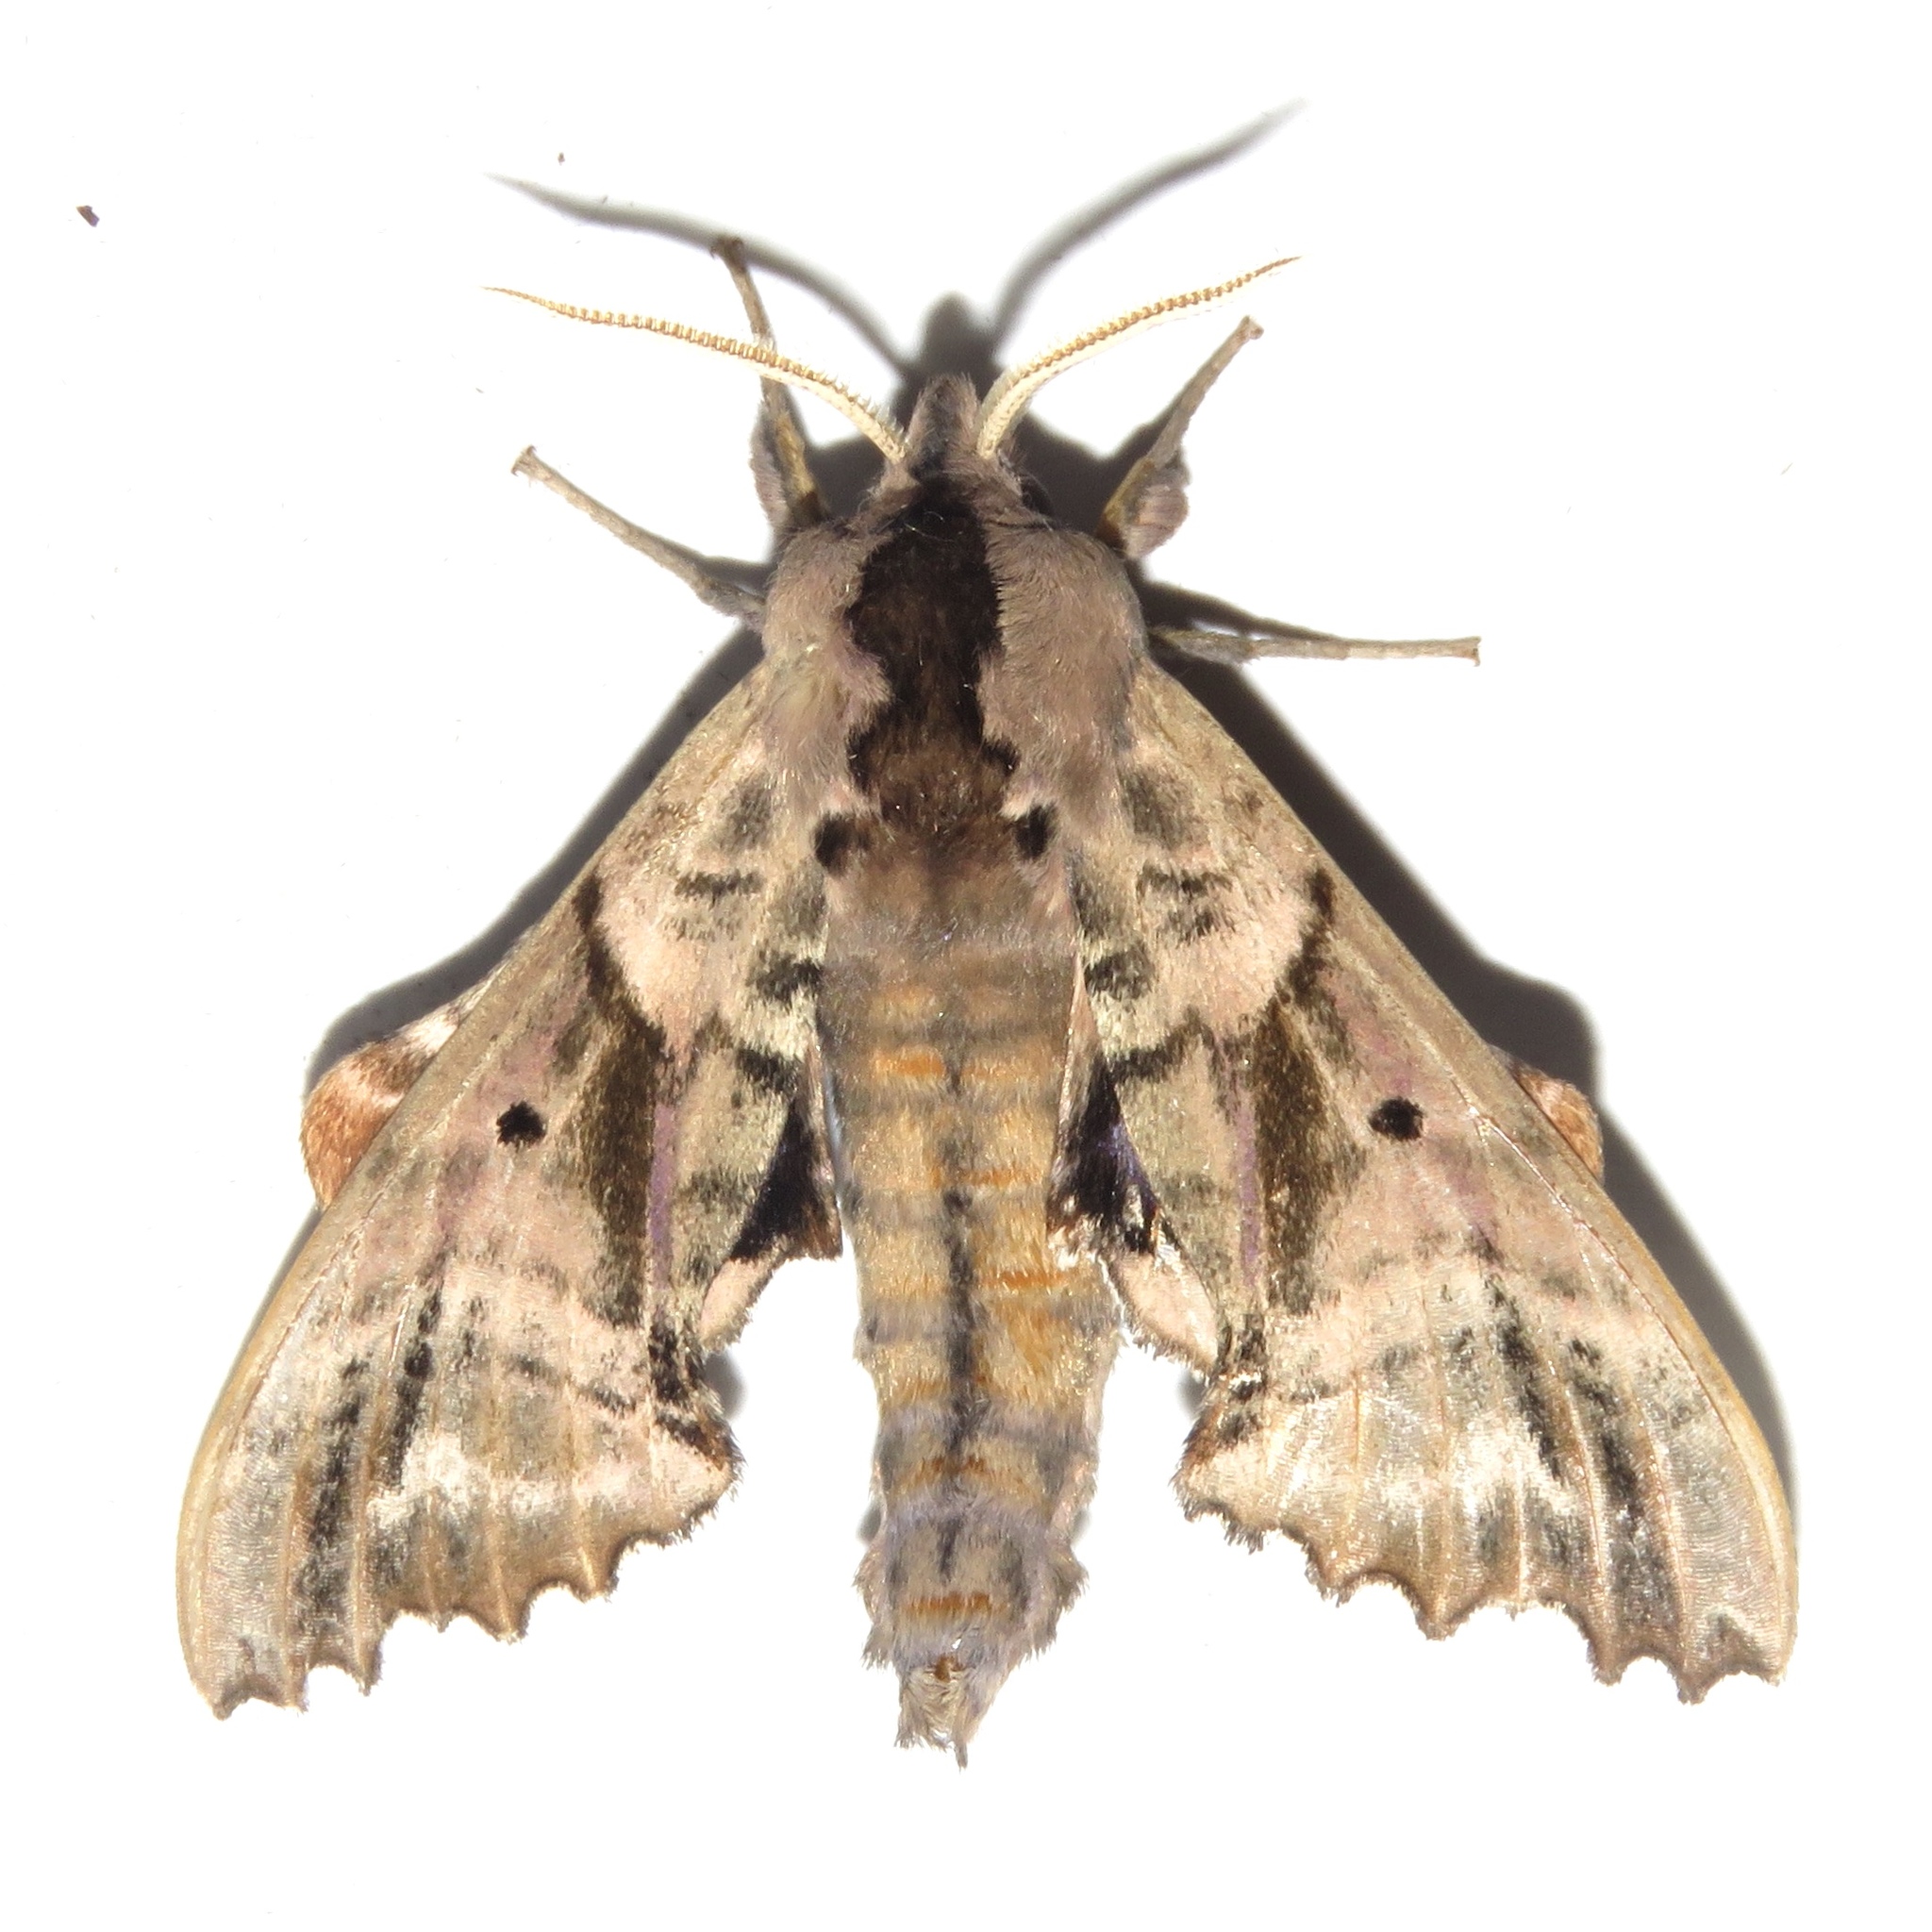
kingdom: Animalia
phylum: Arthropoda
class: Insecta
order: Lepidoptera
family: Sphingidae
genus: Paonias
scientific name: Paonias excaecata
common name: Blind-eyed sphinx
